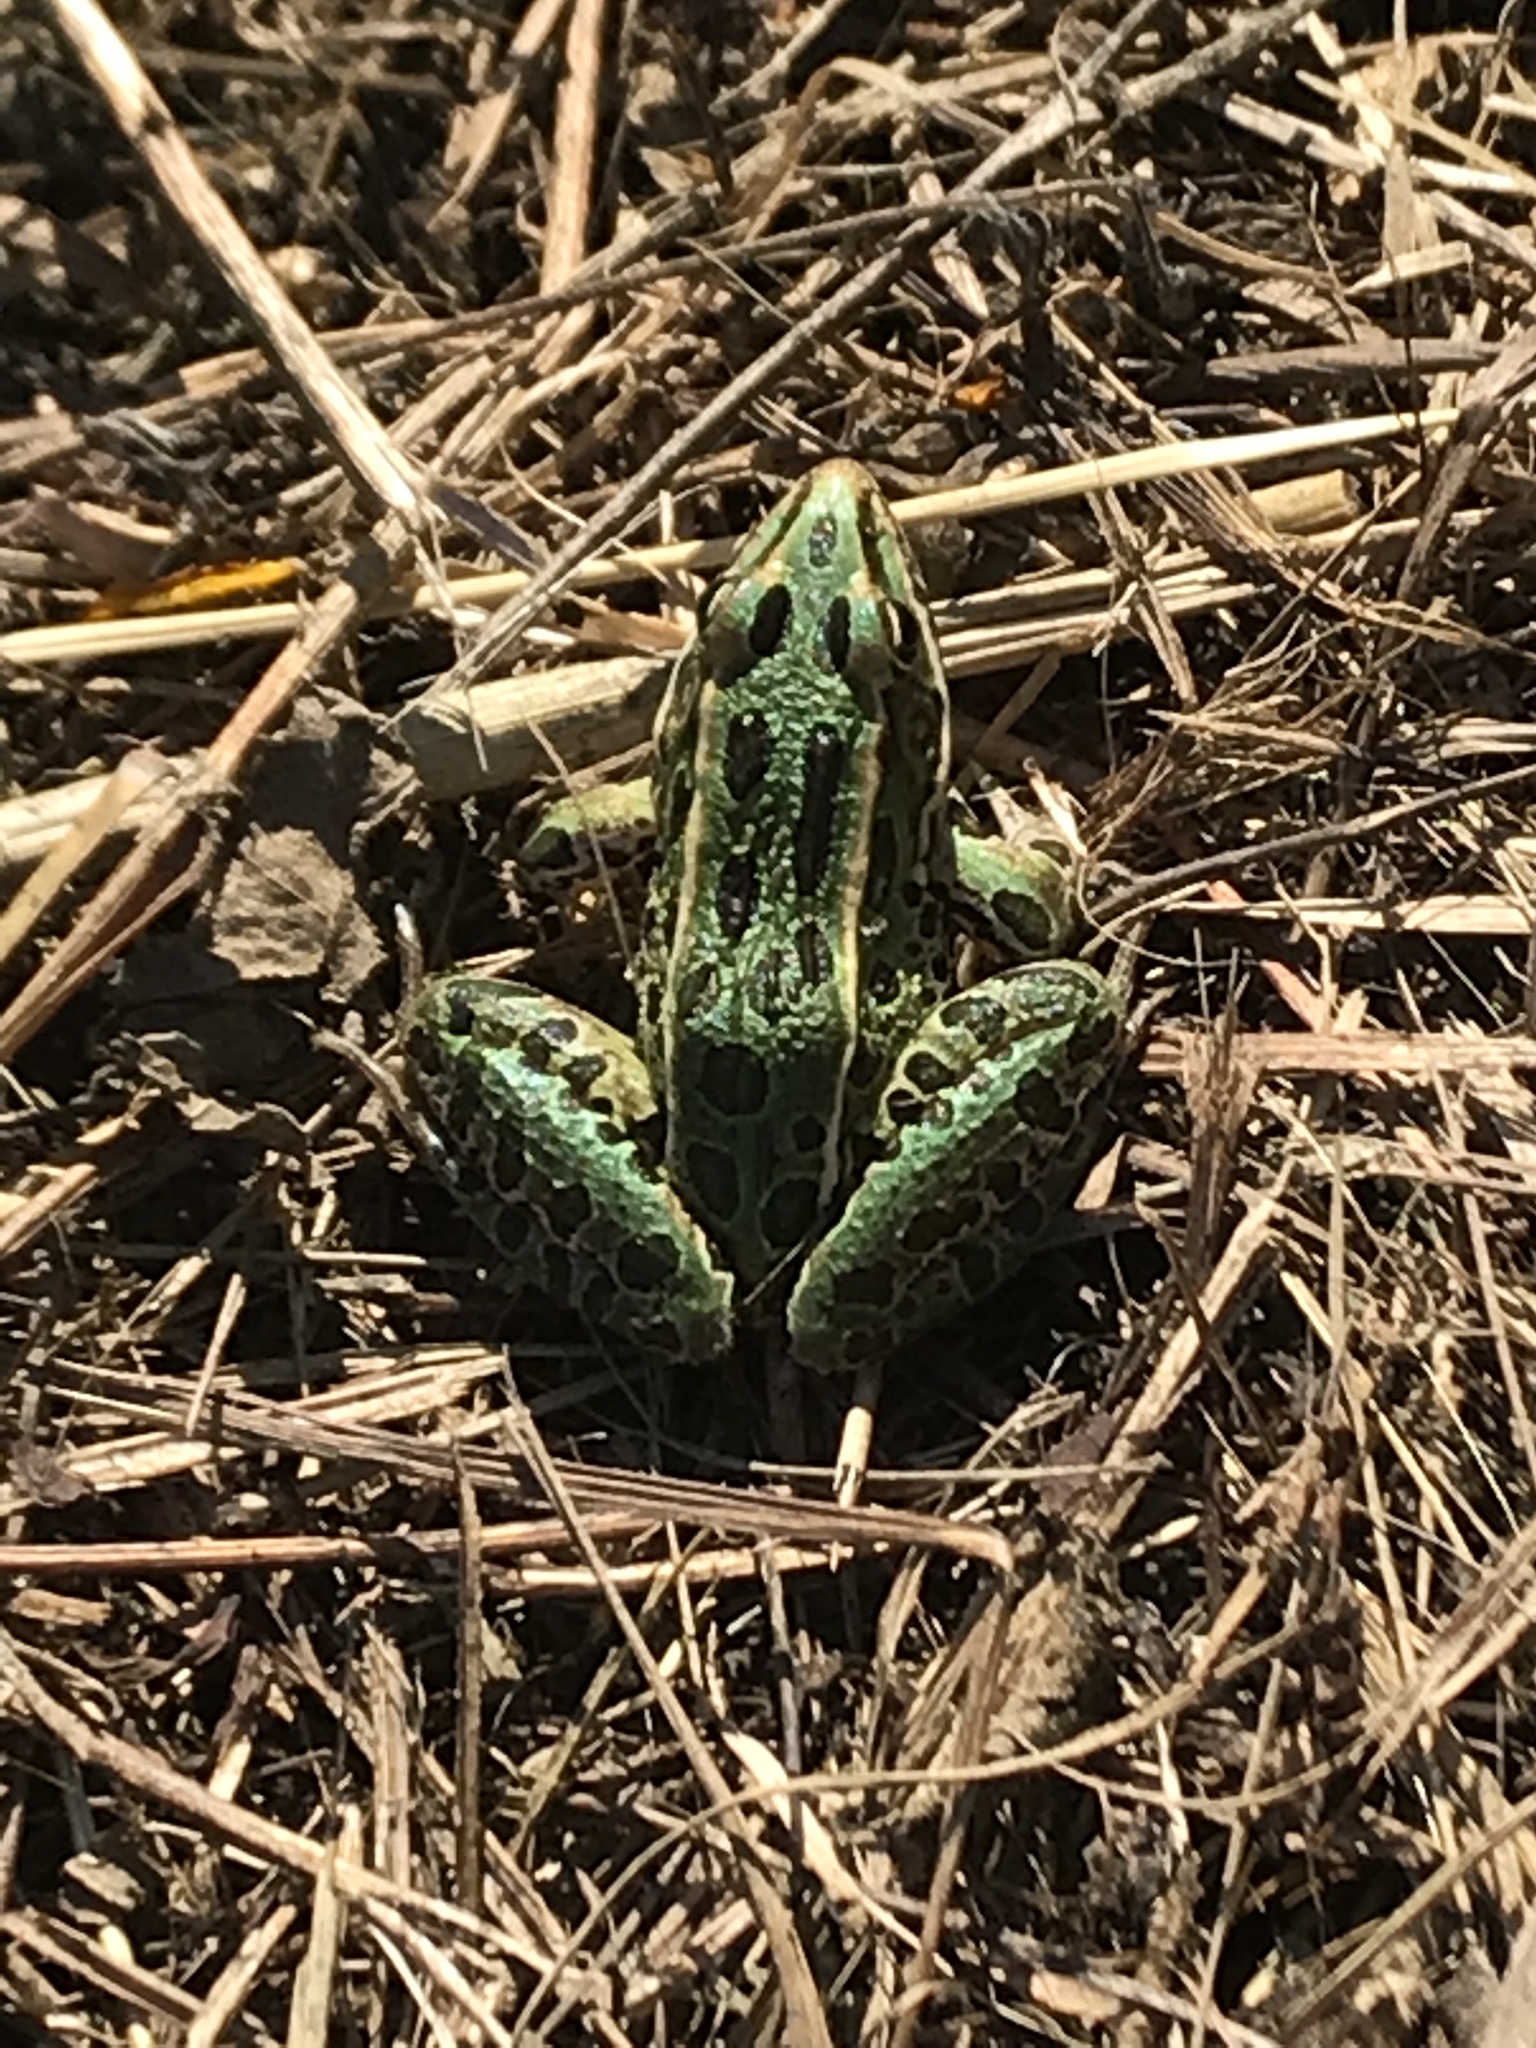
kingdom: Animalia
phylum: Chordata
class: Amphibia
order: Anura
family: Ranidae
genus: Lithobates
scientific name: Lithobates pipiens
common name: Northern leopard frog
